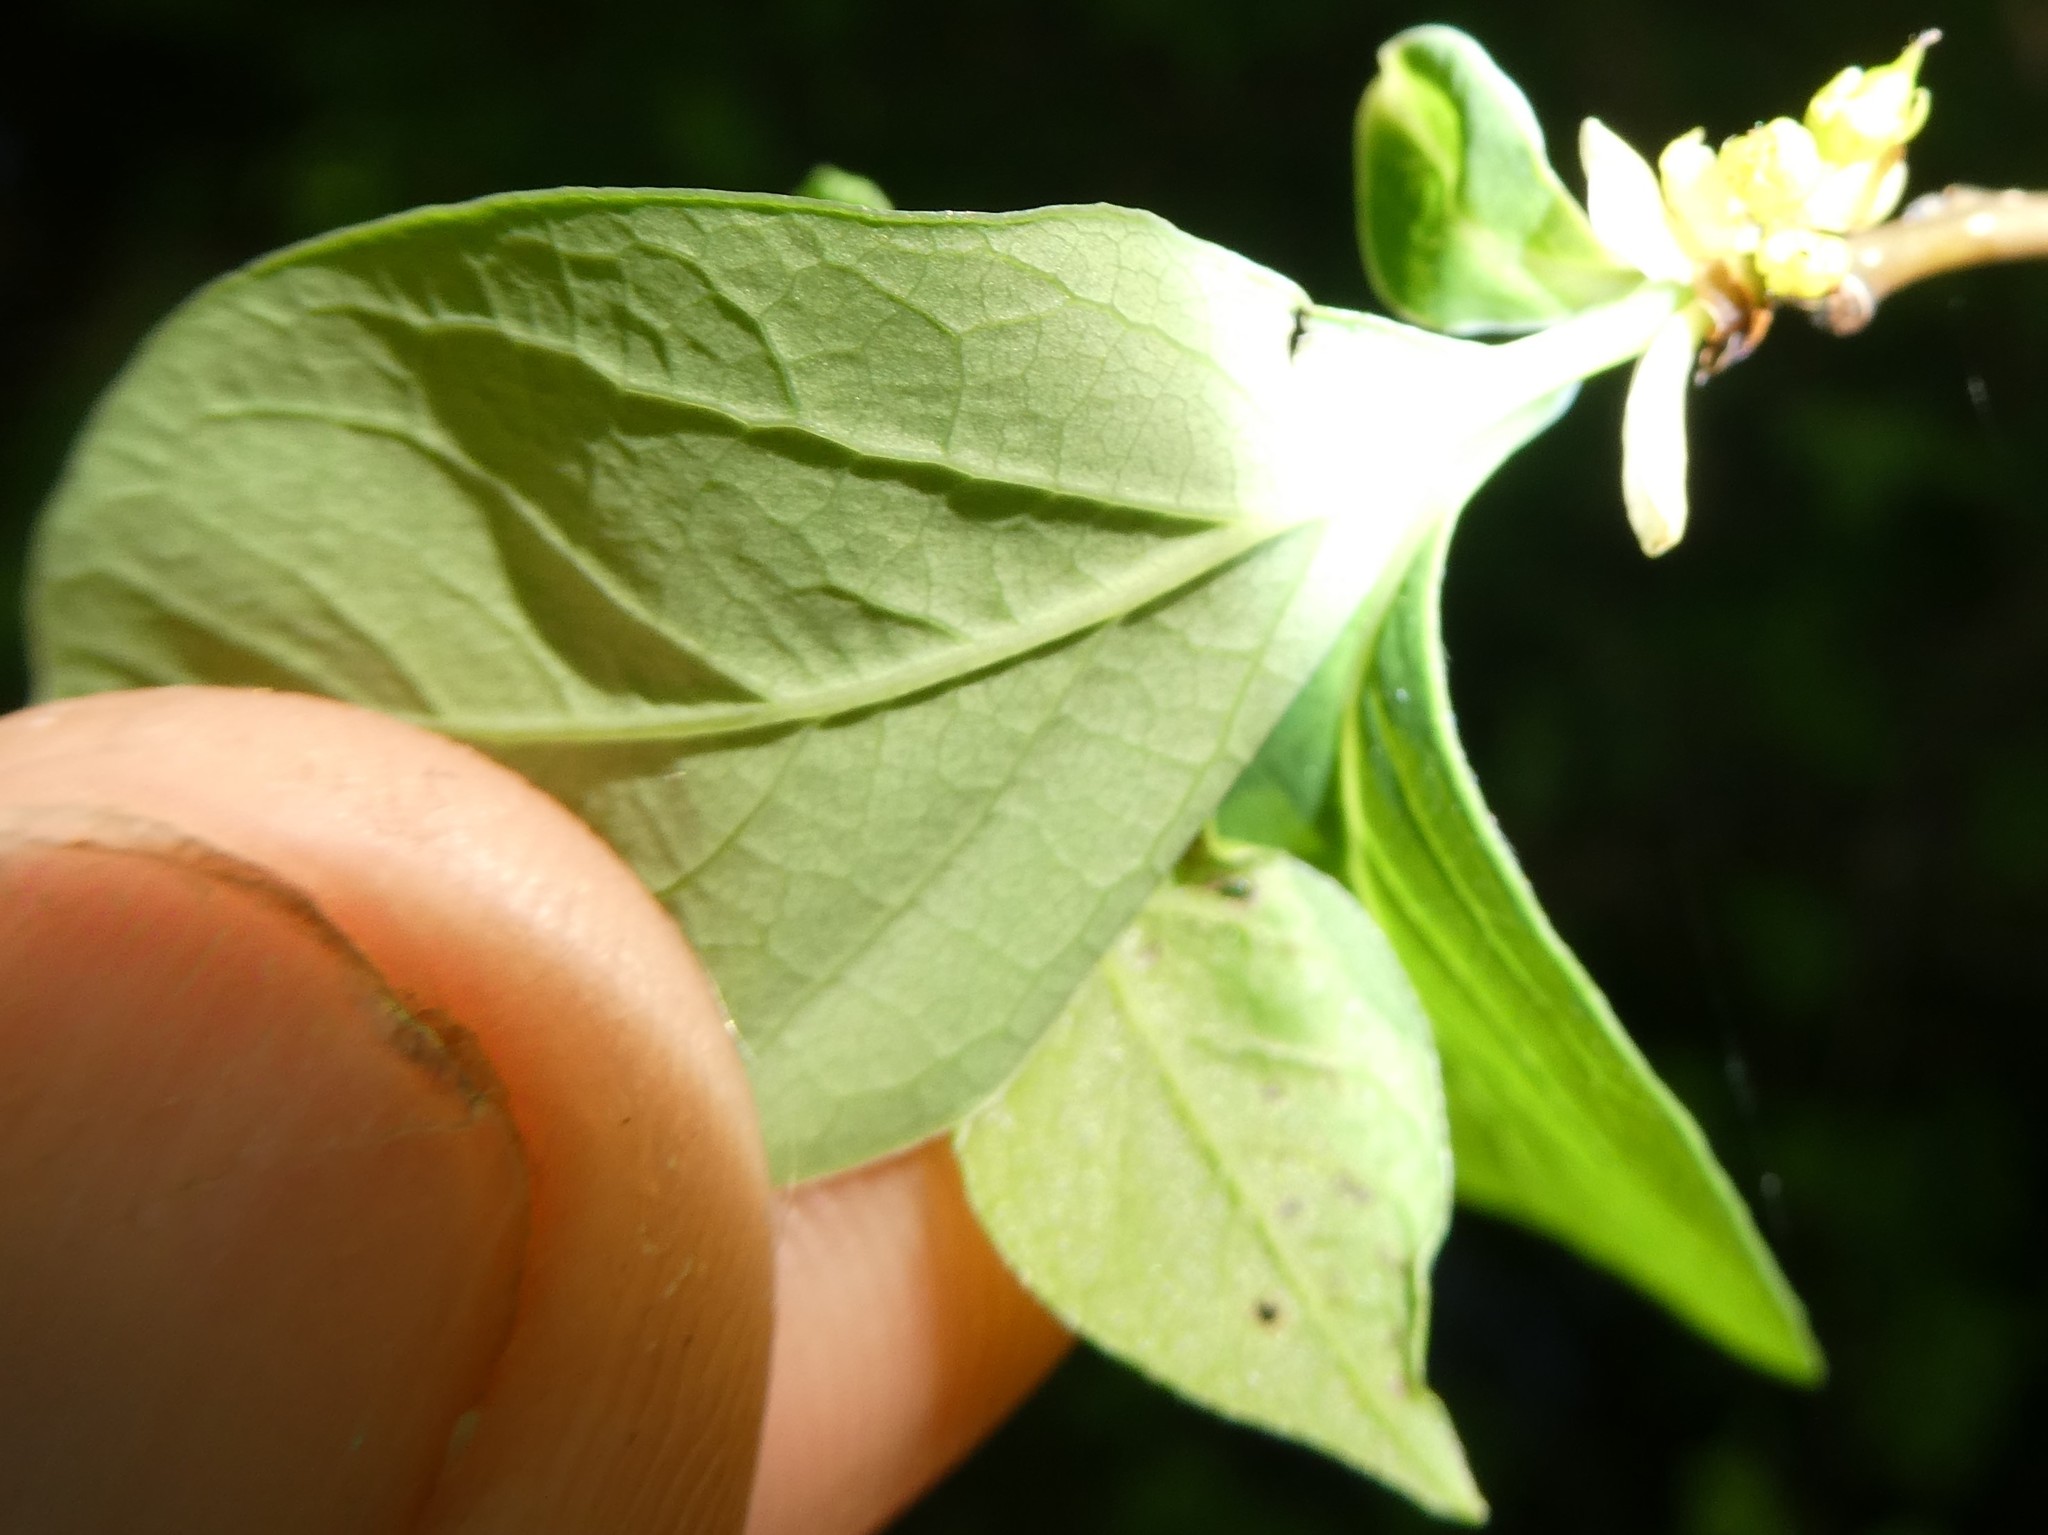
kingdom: Plantae
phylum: Tracheophyta
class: Magnoliopsida
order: Laurales
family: Lauraceae
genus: Lindera
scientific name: Lindera benzoin
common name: Spicebush
